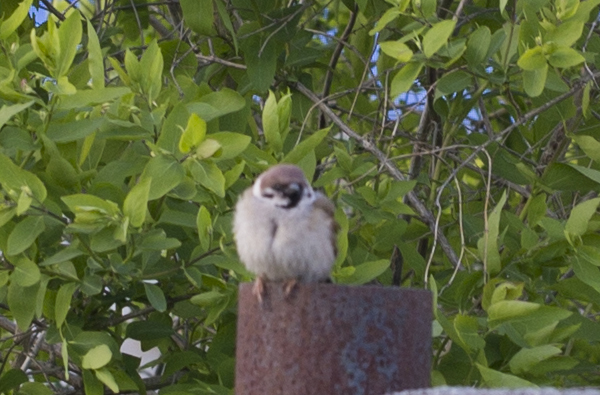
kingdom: Animalia
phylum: Chordata
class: Aves
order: Passeriformes
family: Passeridae
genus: Passer
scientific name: Passer montanus
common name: Eurasian tree sparrow
